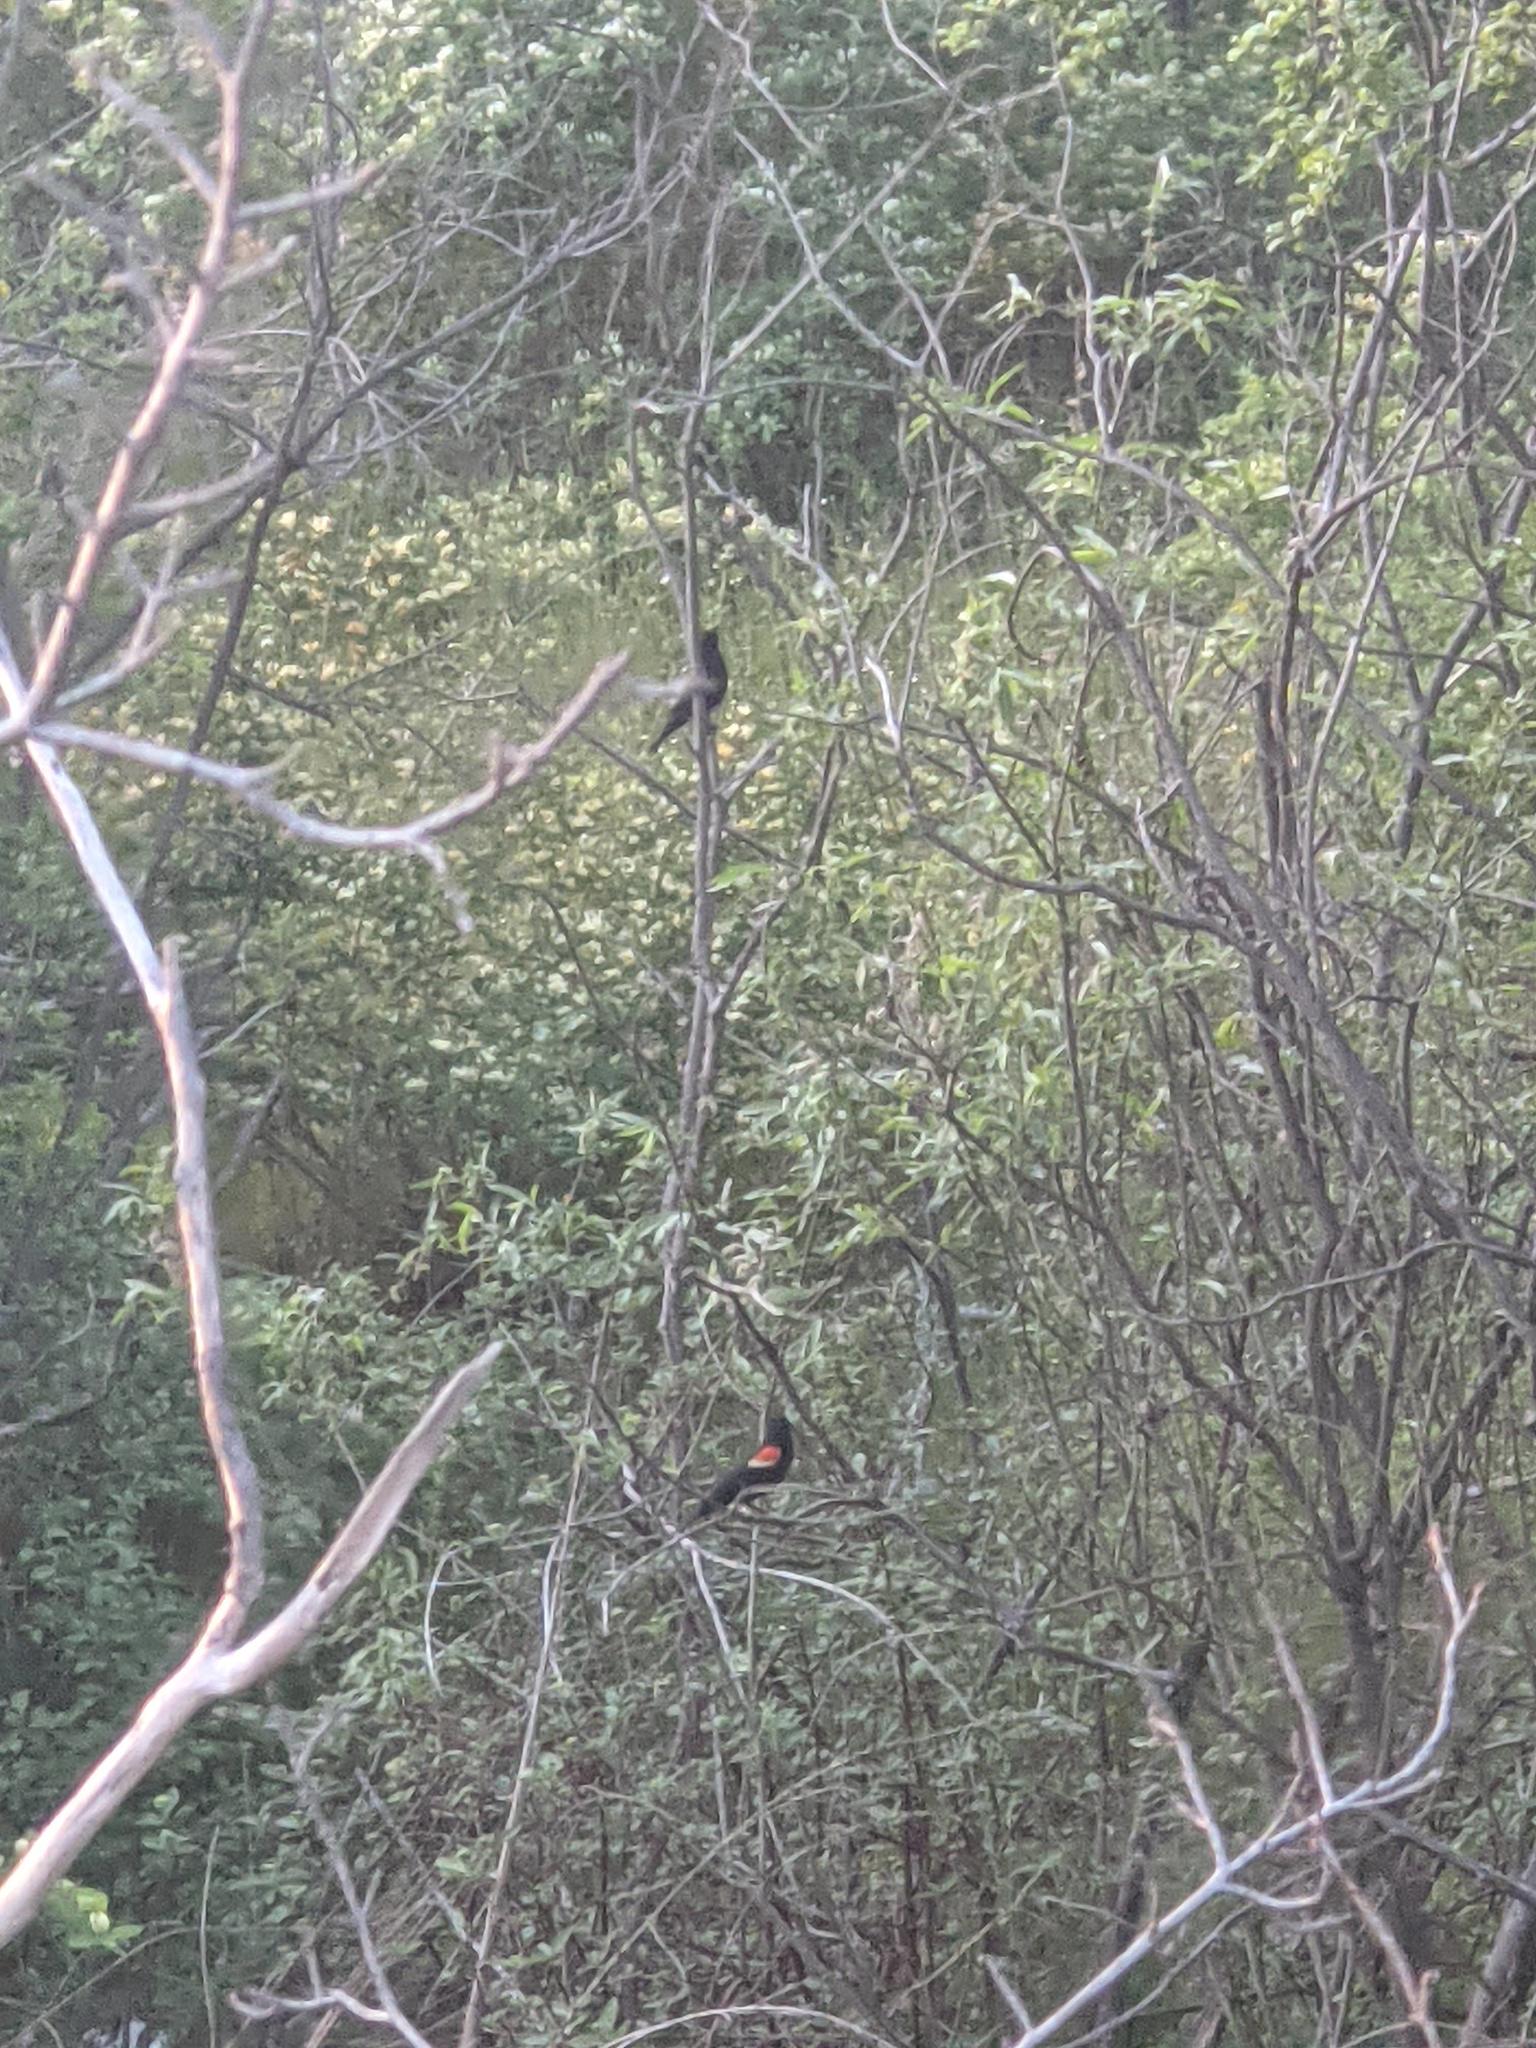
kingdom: Animalia
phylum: Chordata
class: Aves
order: Passeriformes
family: Icteridae
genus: Agelaius
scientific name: Agelaius phoeniceus
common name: Red-winged blackbird
